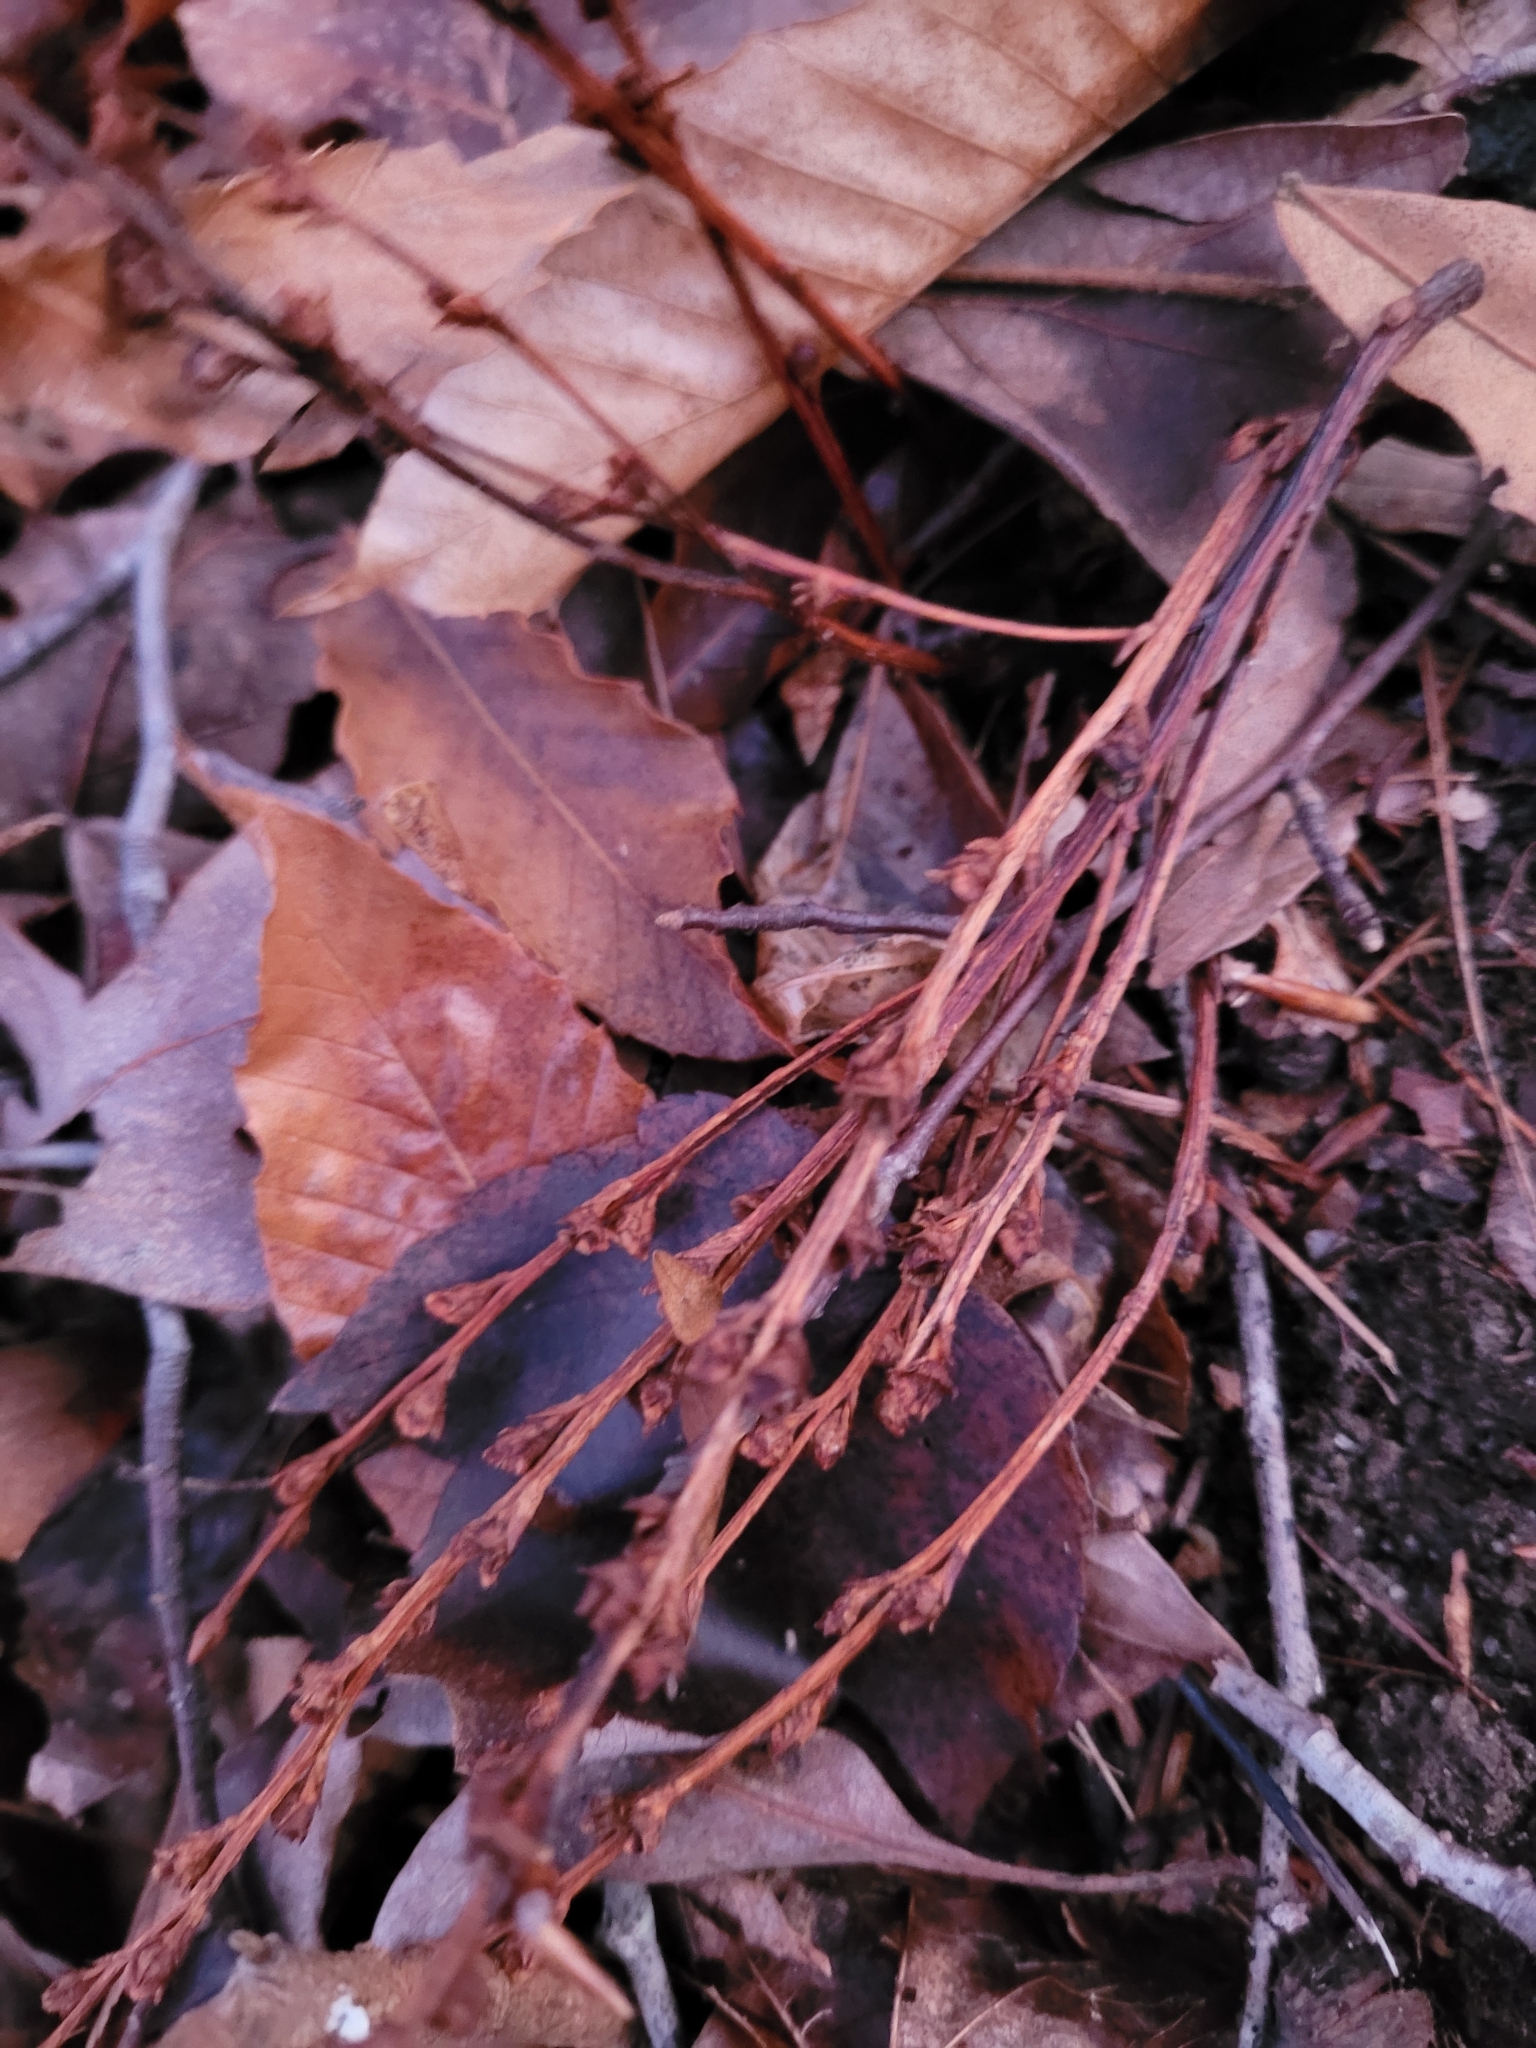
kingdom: Plantae
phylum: Tracheophyta
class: Magnoliopsida
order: Lamiales
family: Orobanchaceae
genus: Epifagus
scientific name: Epifagus virginiana
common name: Beechdrops
